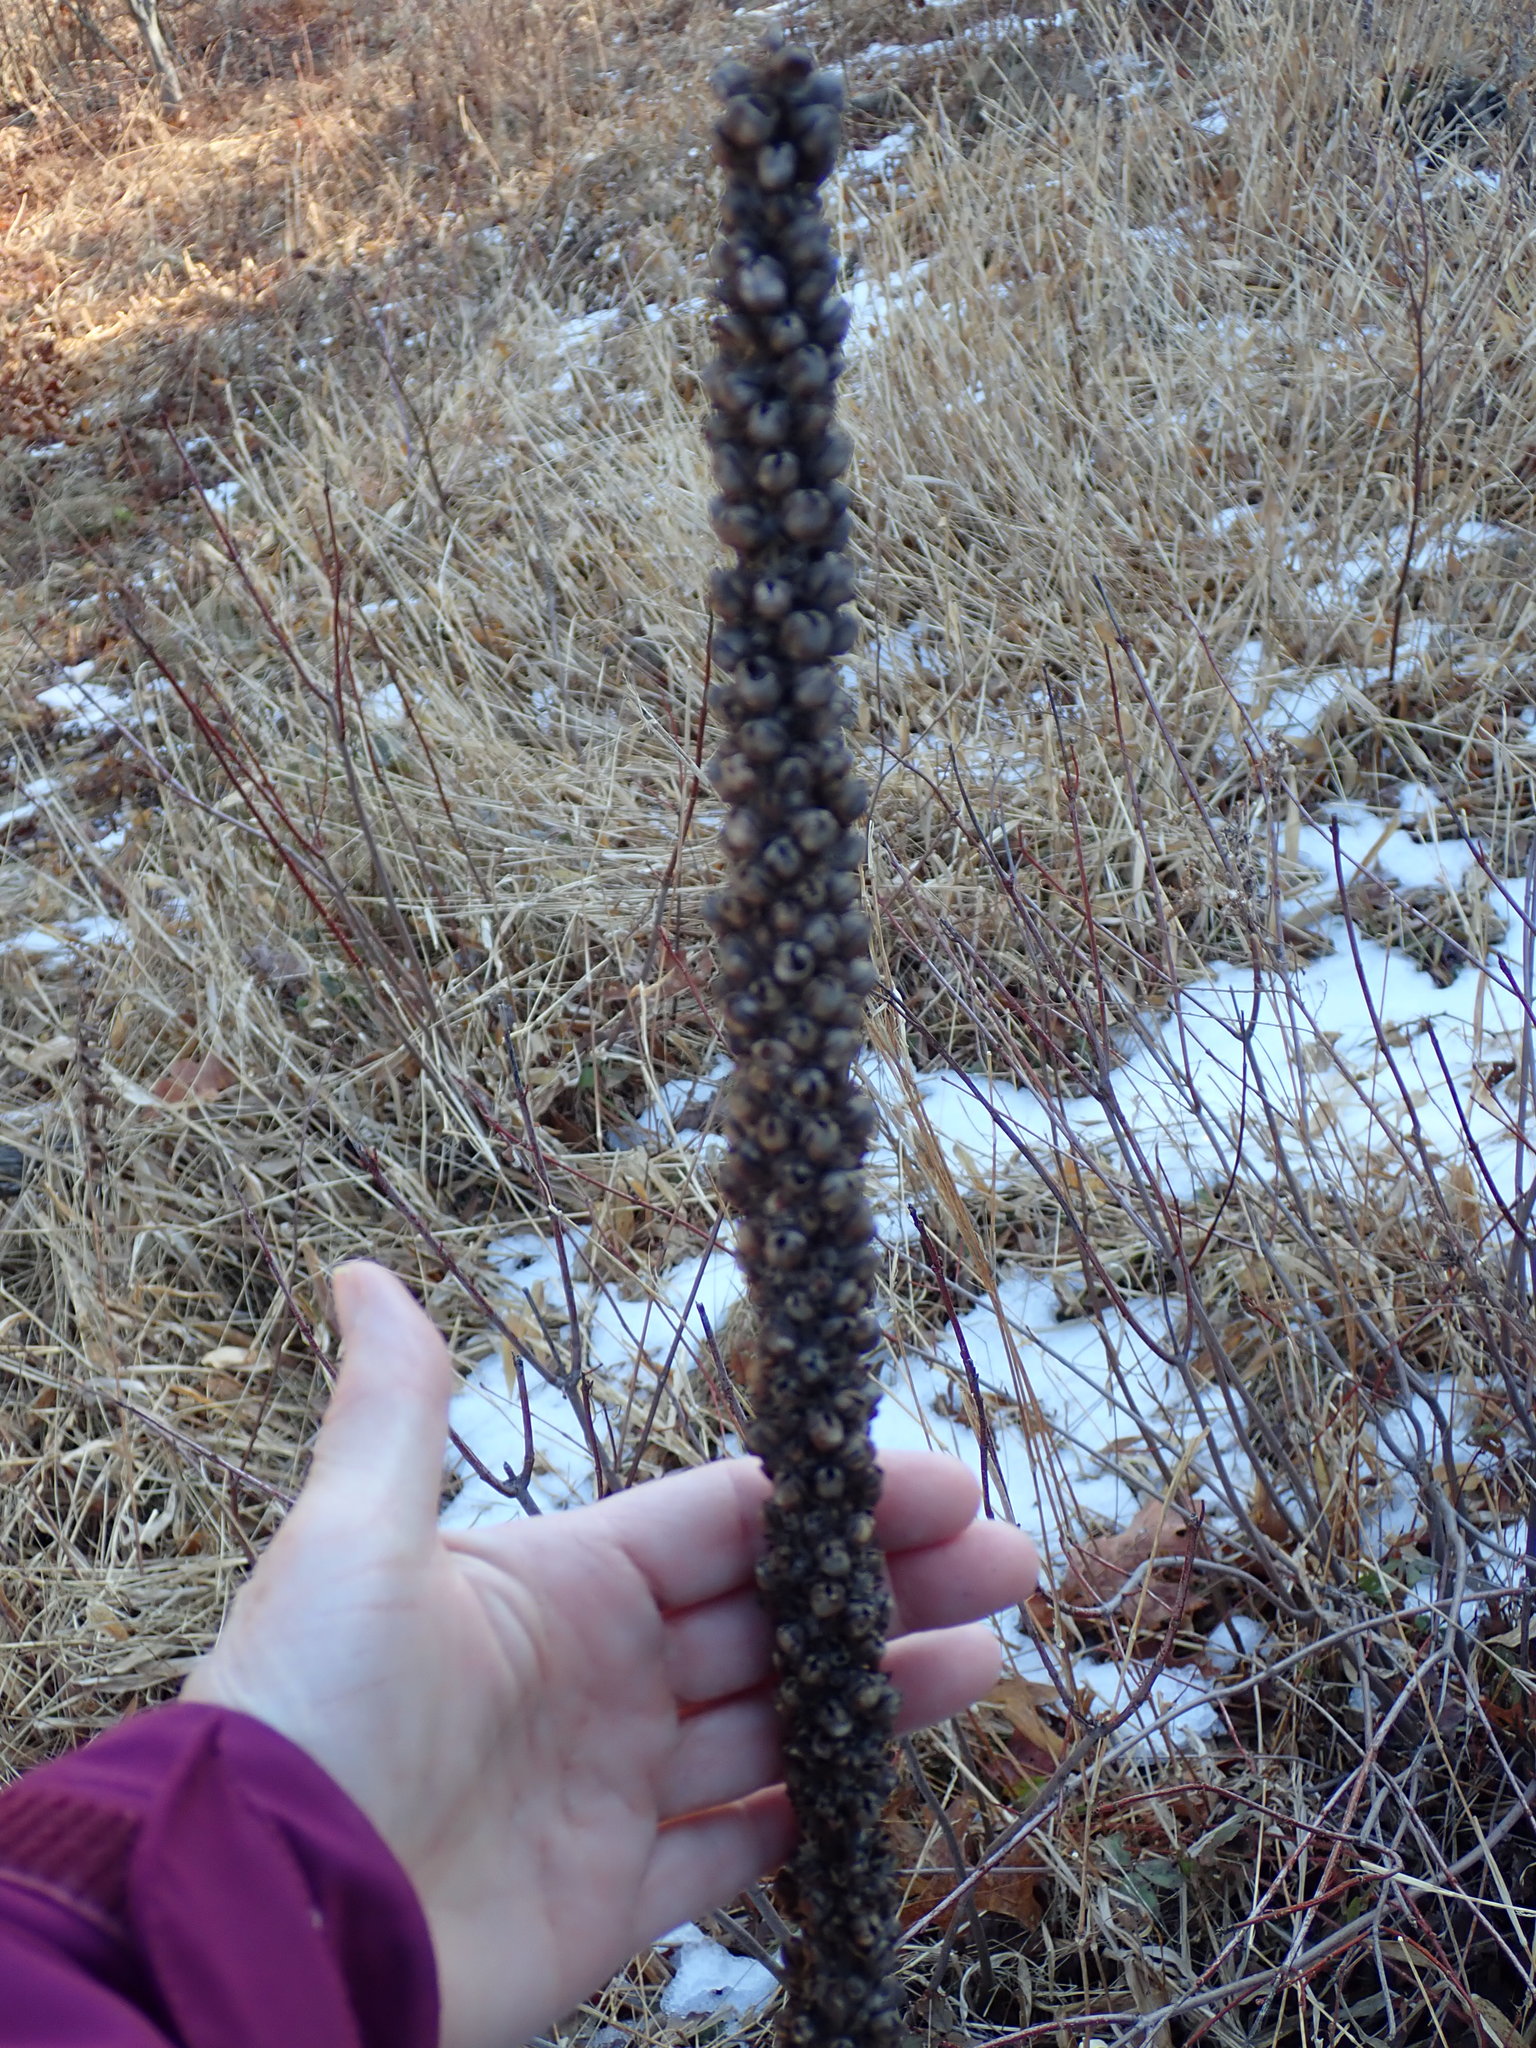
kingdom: Plantae
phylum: Tracheophyta
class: Magnoliopsida
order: Lamiales
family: Scrophulariaceae
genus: Verbascum
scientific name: Verbascum thapsus
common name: Common mullein
